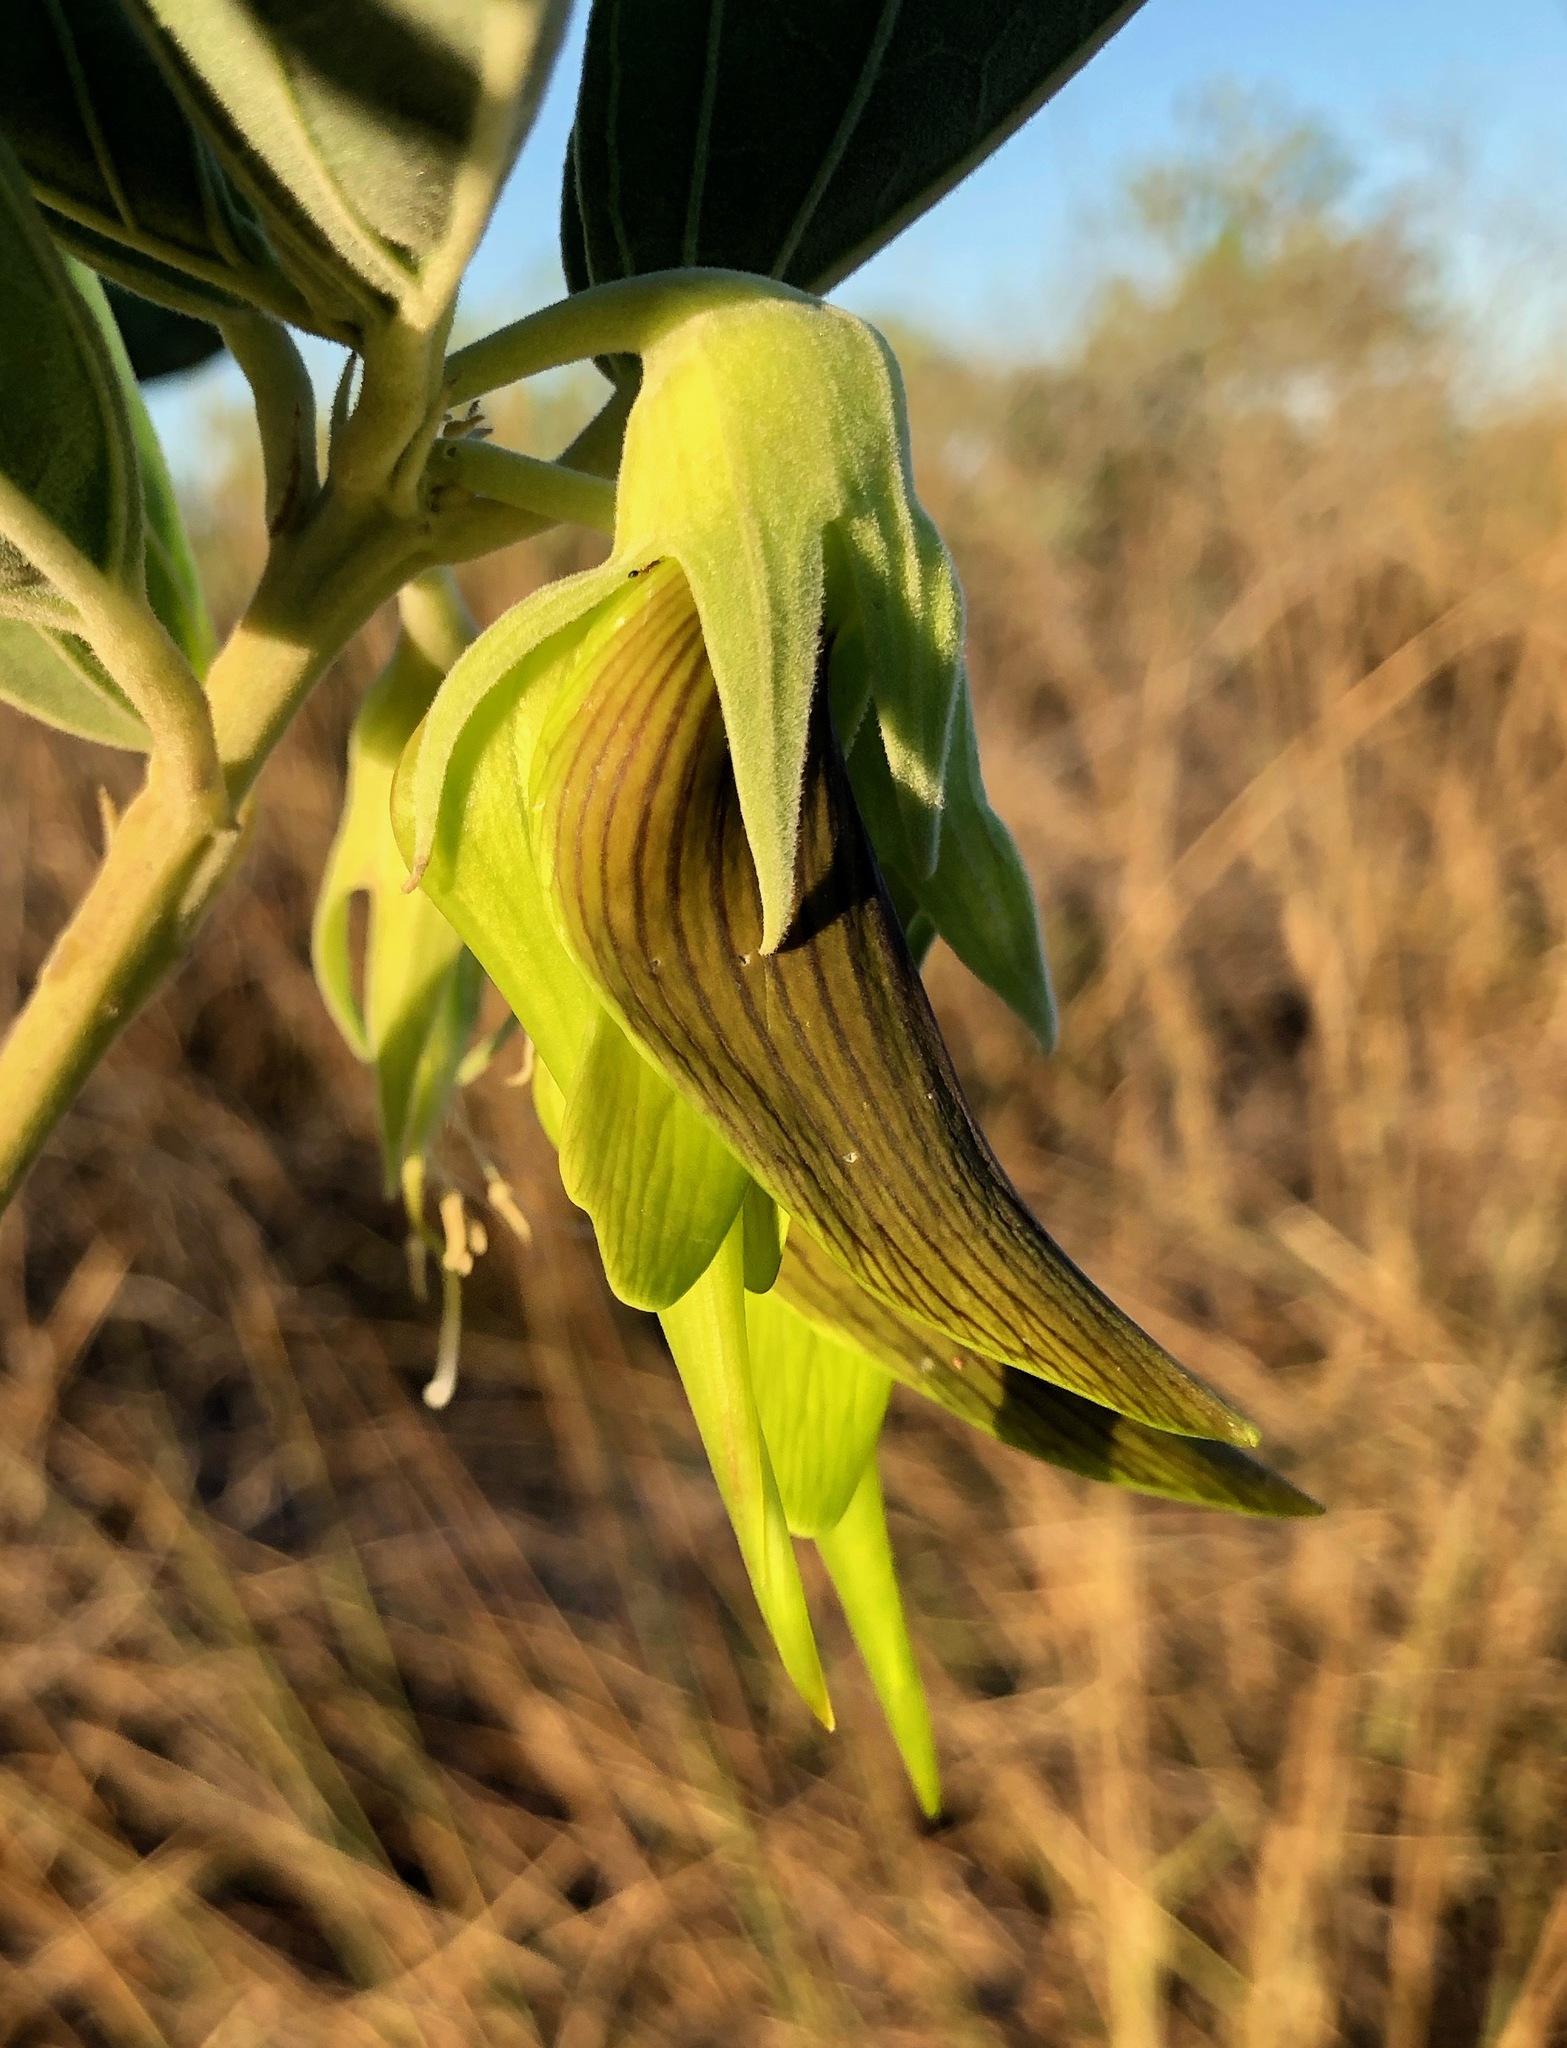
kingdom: Plantae
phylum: Tracheophyta
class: Magnoliopsida
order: Fabales
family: Fabaceae
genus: Crotalaria
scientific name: Crotalaria cunninghamii
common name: Birdflower rattlepod
